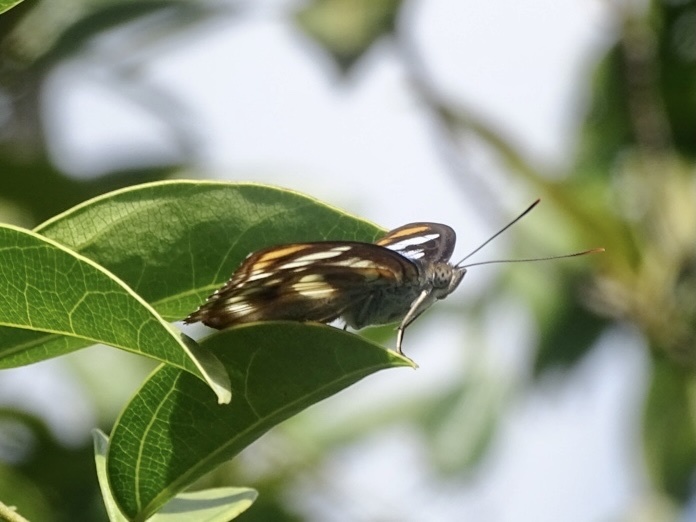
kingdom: Animalia
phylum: Arthropoda
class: Insecta
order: Lepidoptera
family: Nymphalidae
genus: Parathyma
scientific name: Parathyma nefte
